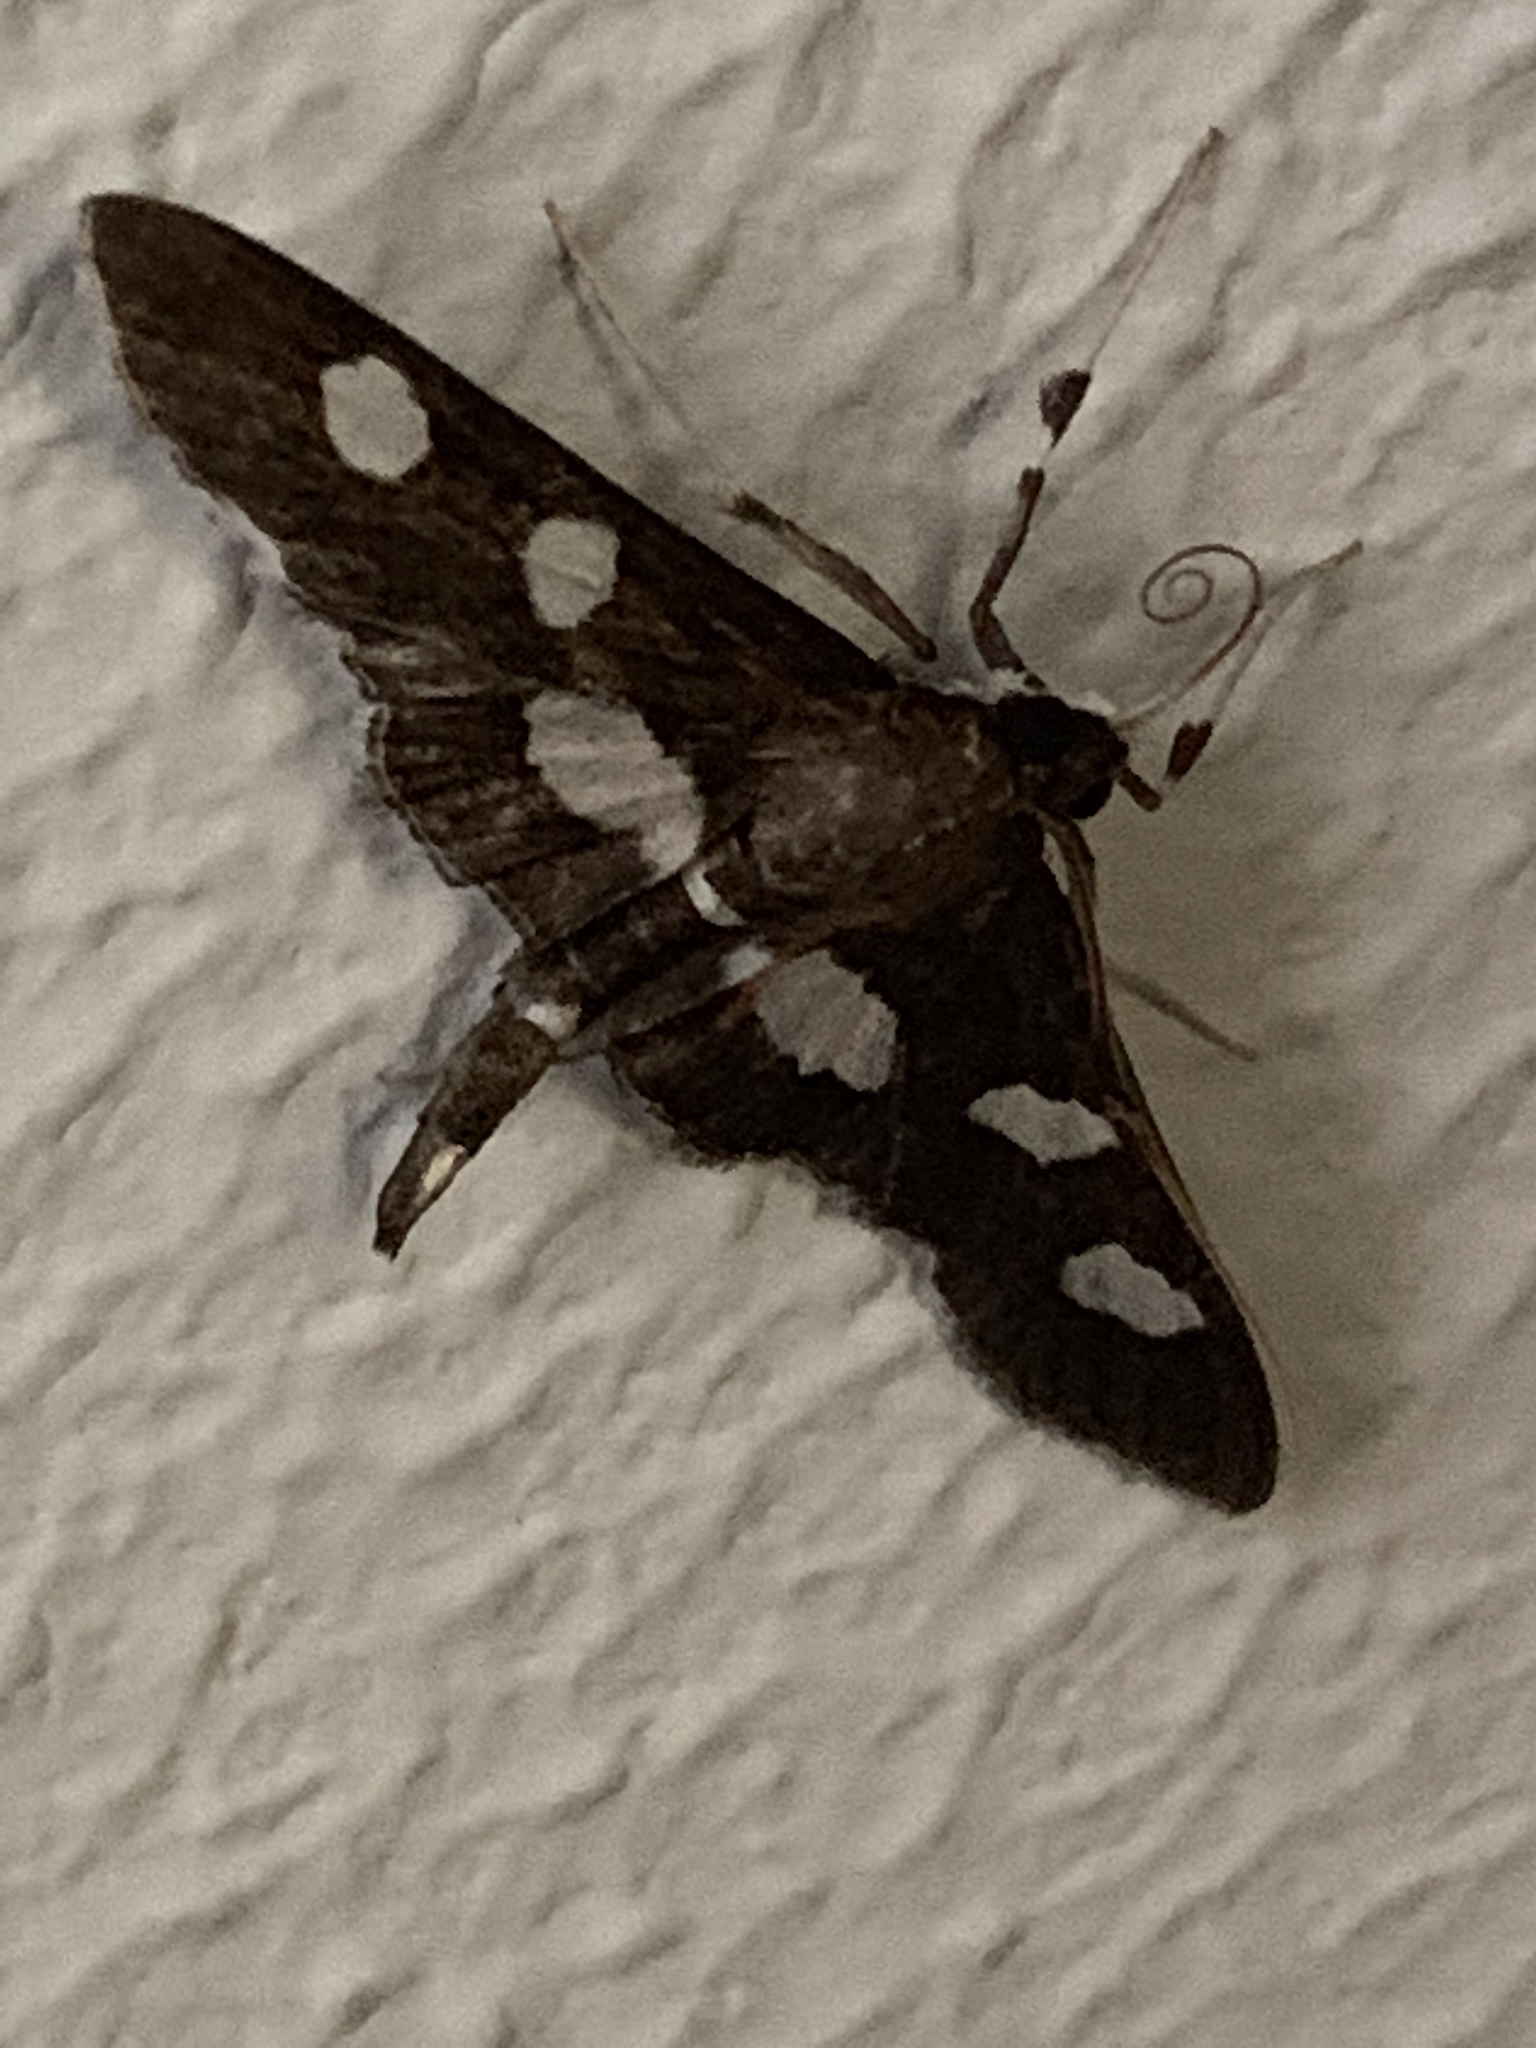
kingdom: Animalia
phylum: Arthropoda
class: Insecta
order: Lepidoptera
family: Crambidae
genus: Desmia
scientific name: Desmia
